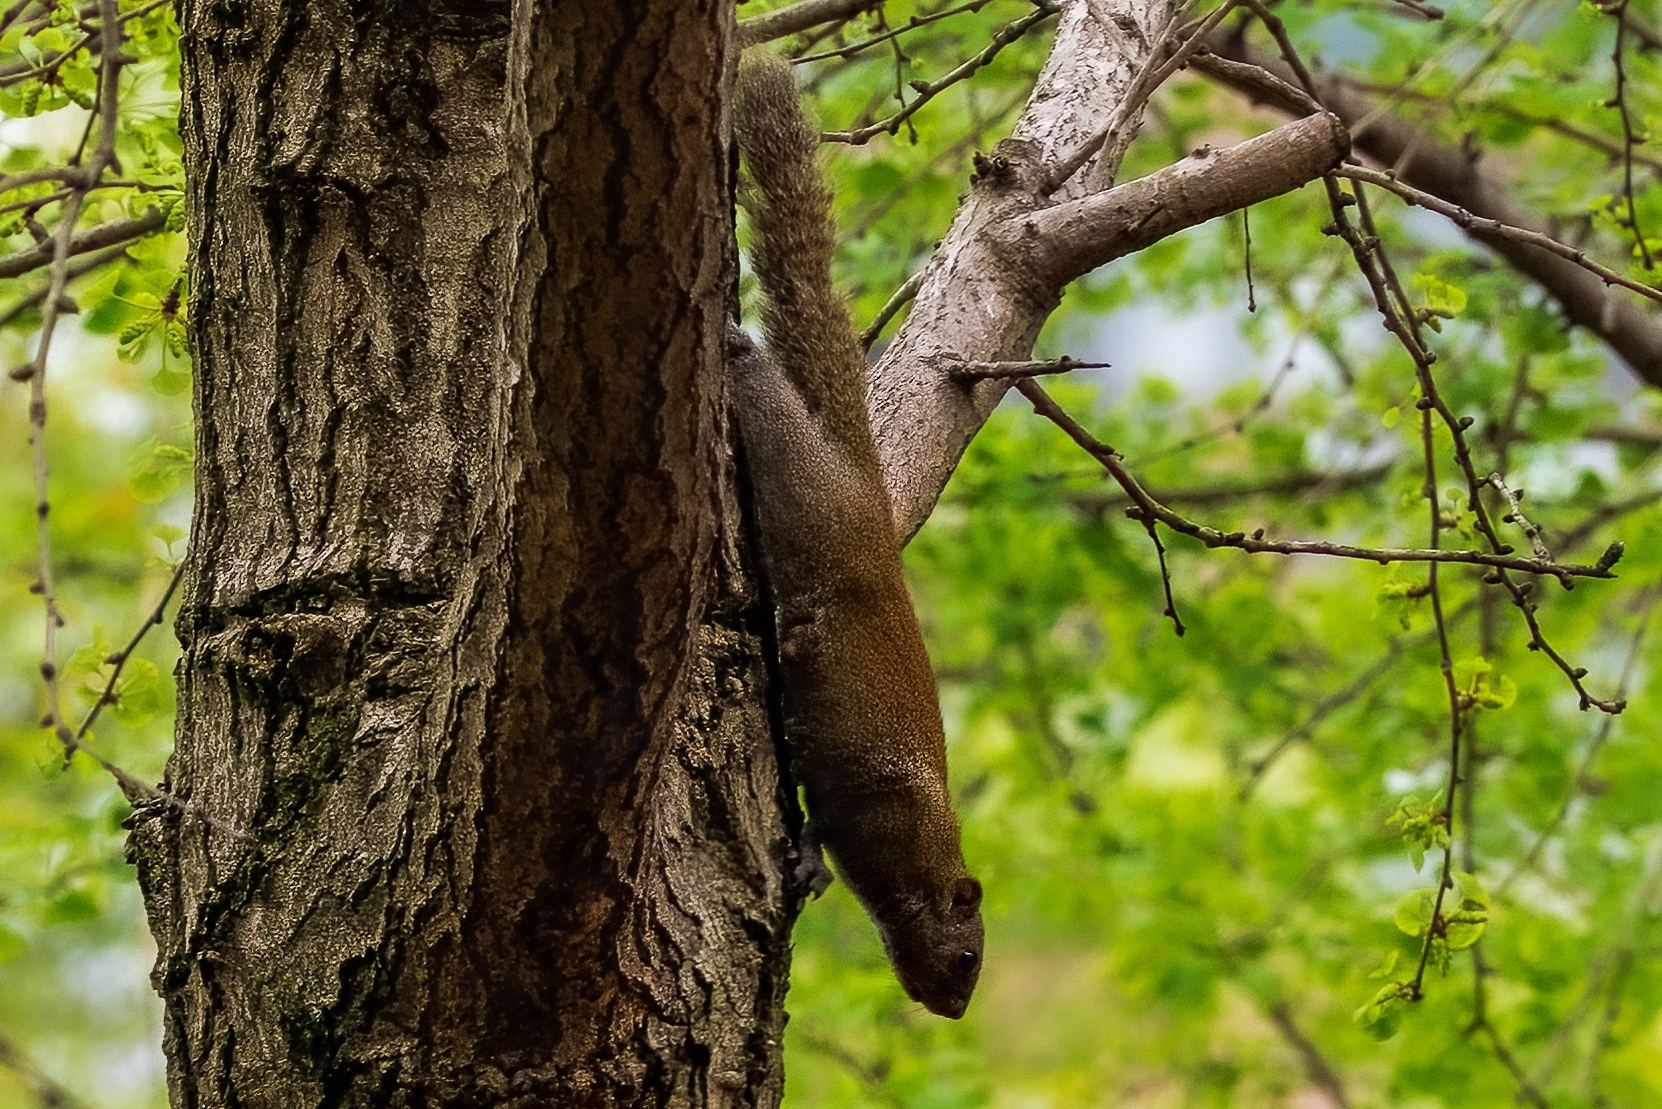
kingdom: Animalia
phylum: Chordata
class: Mammalia
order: Rodentia
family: Sciuridae
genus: Callosciurus
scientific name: Callosciurus erythraeus
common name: Pallas's squirrel
